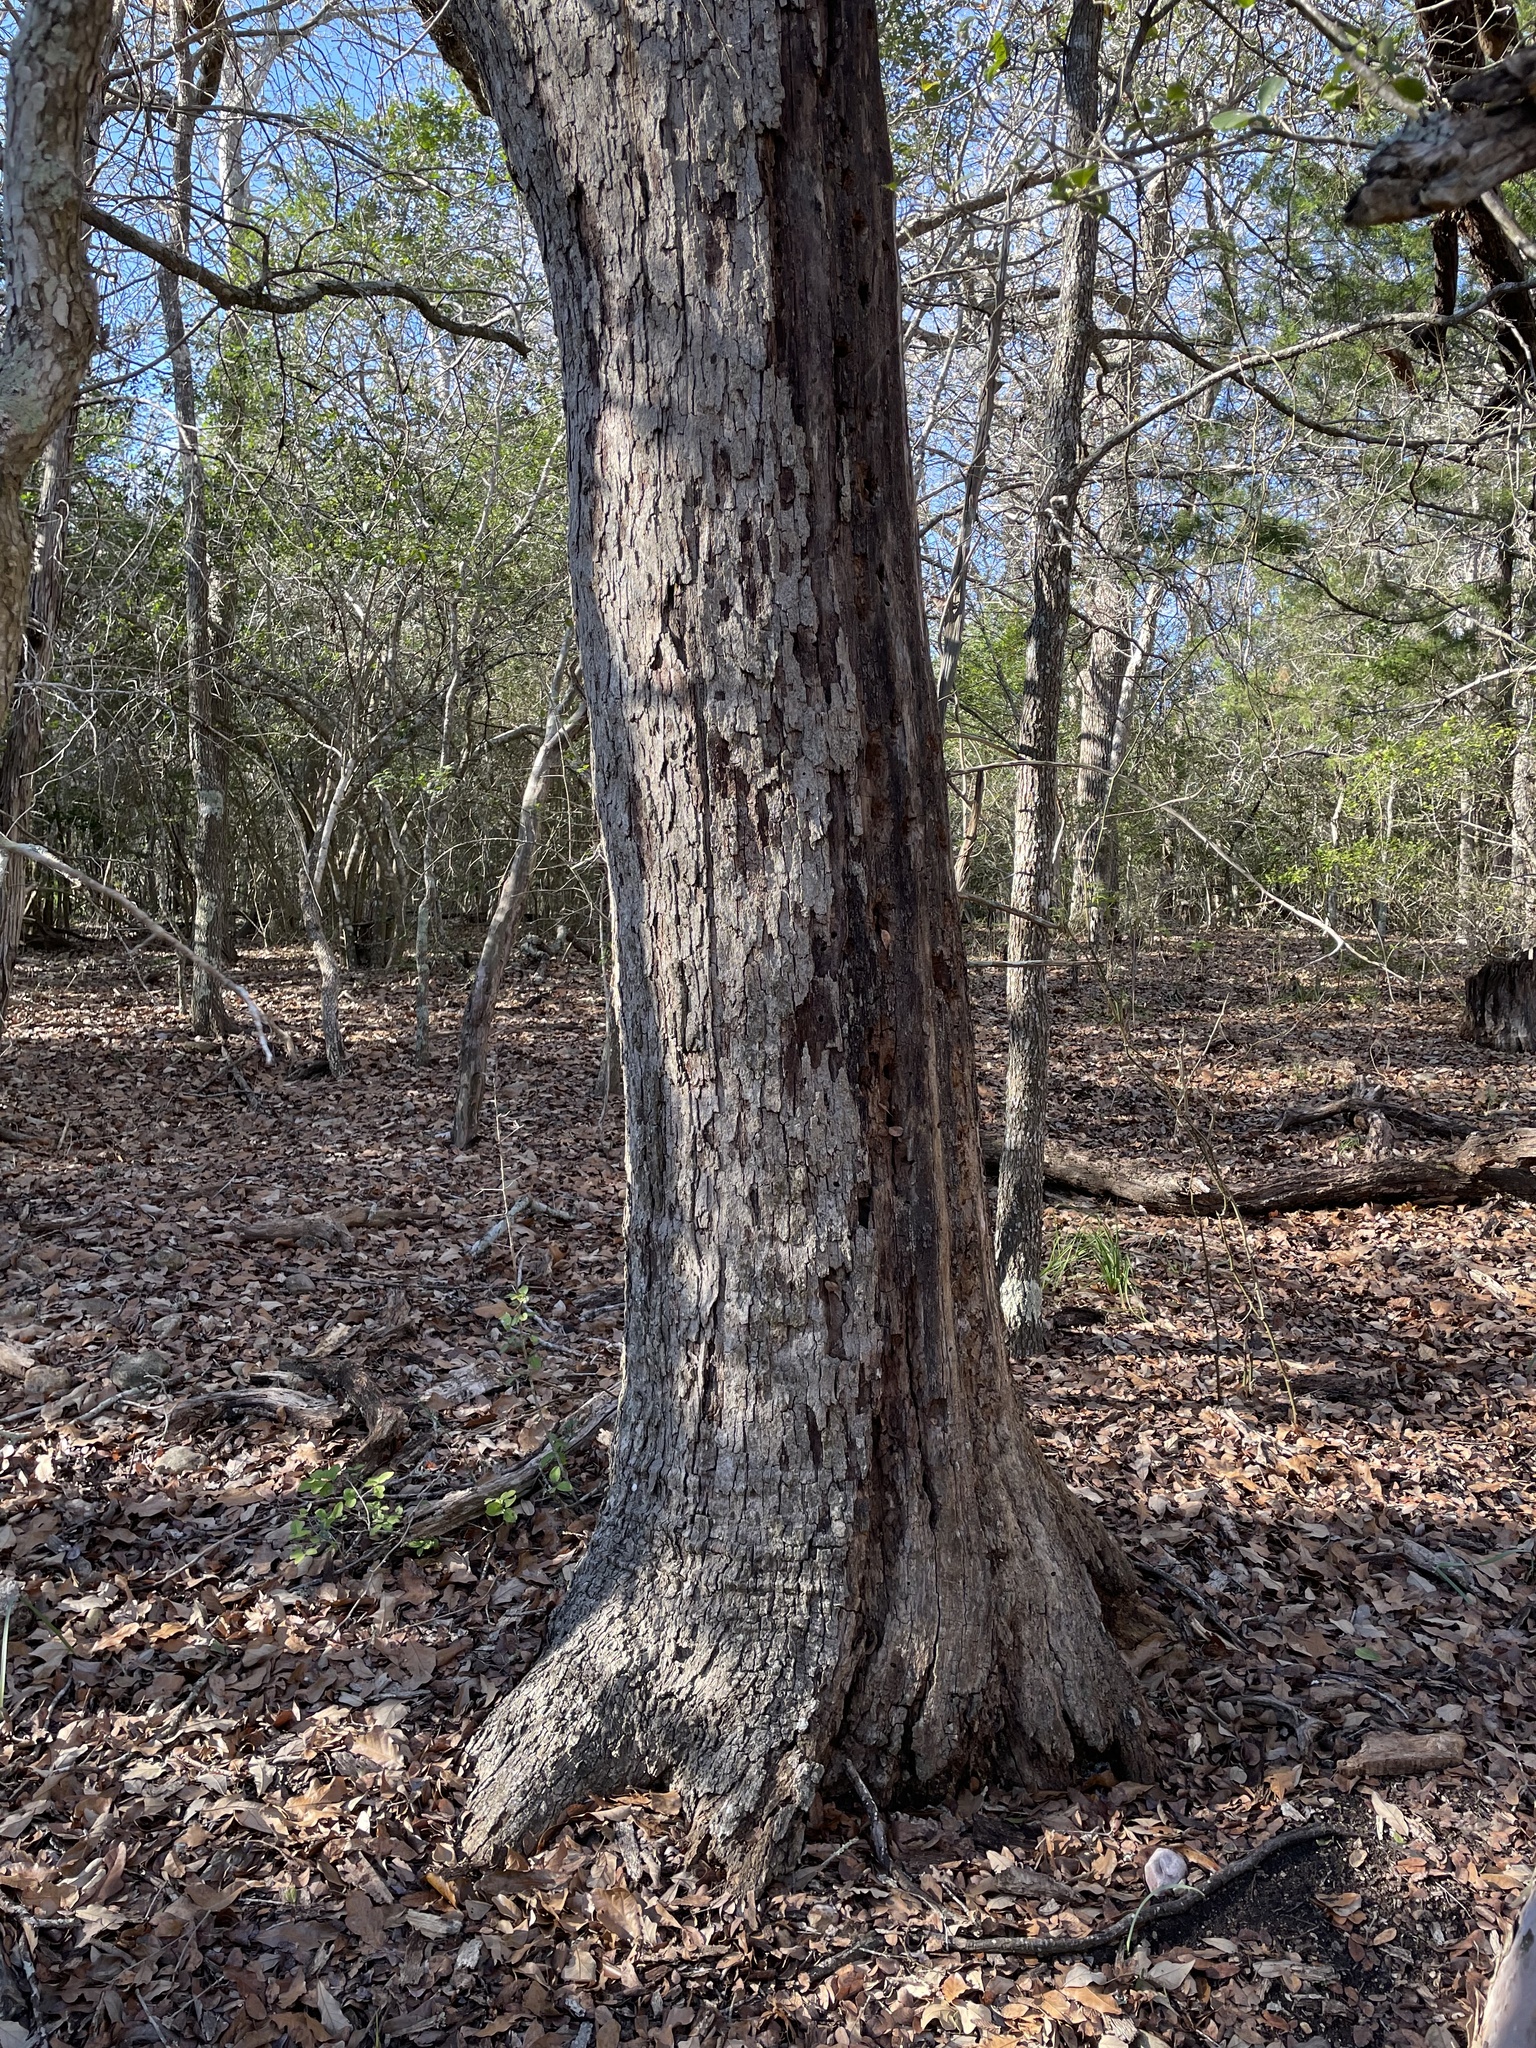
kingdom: Plantae
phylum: Tracheophyta
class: Magnoliopsida
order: Fagales
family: Fagaceae
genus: Quercus
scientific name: Quercus sinuata
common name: Durand oak
